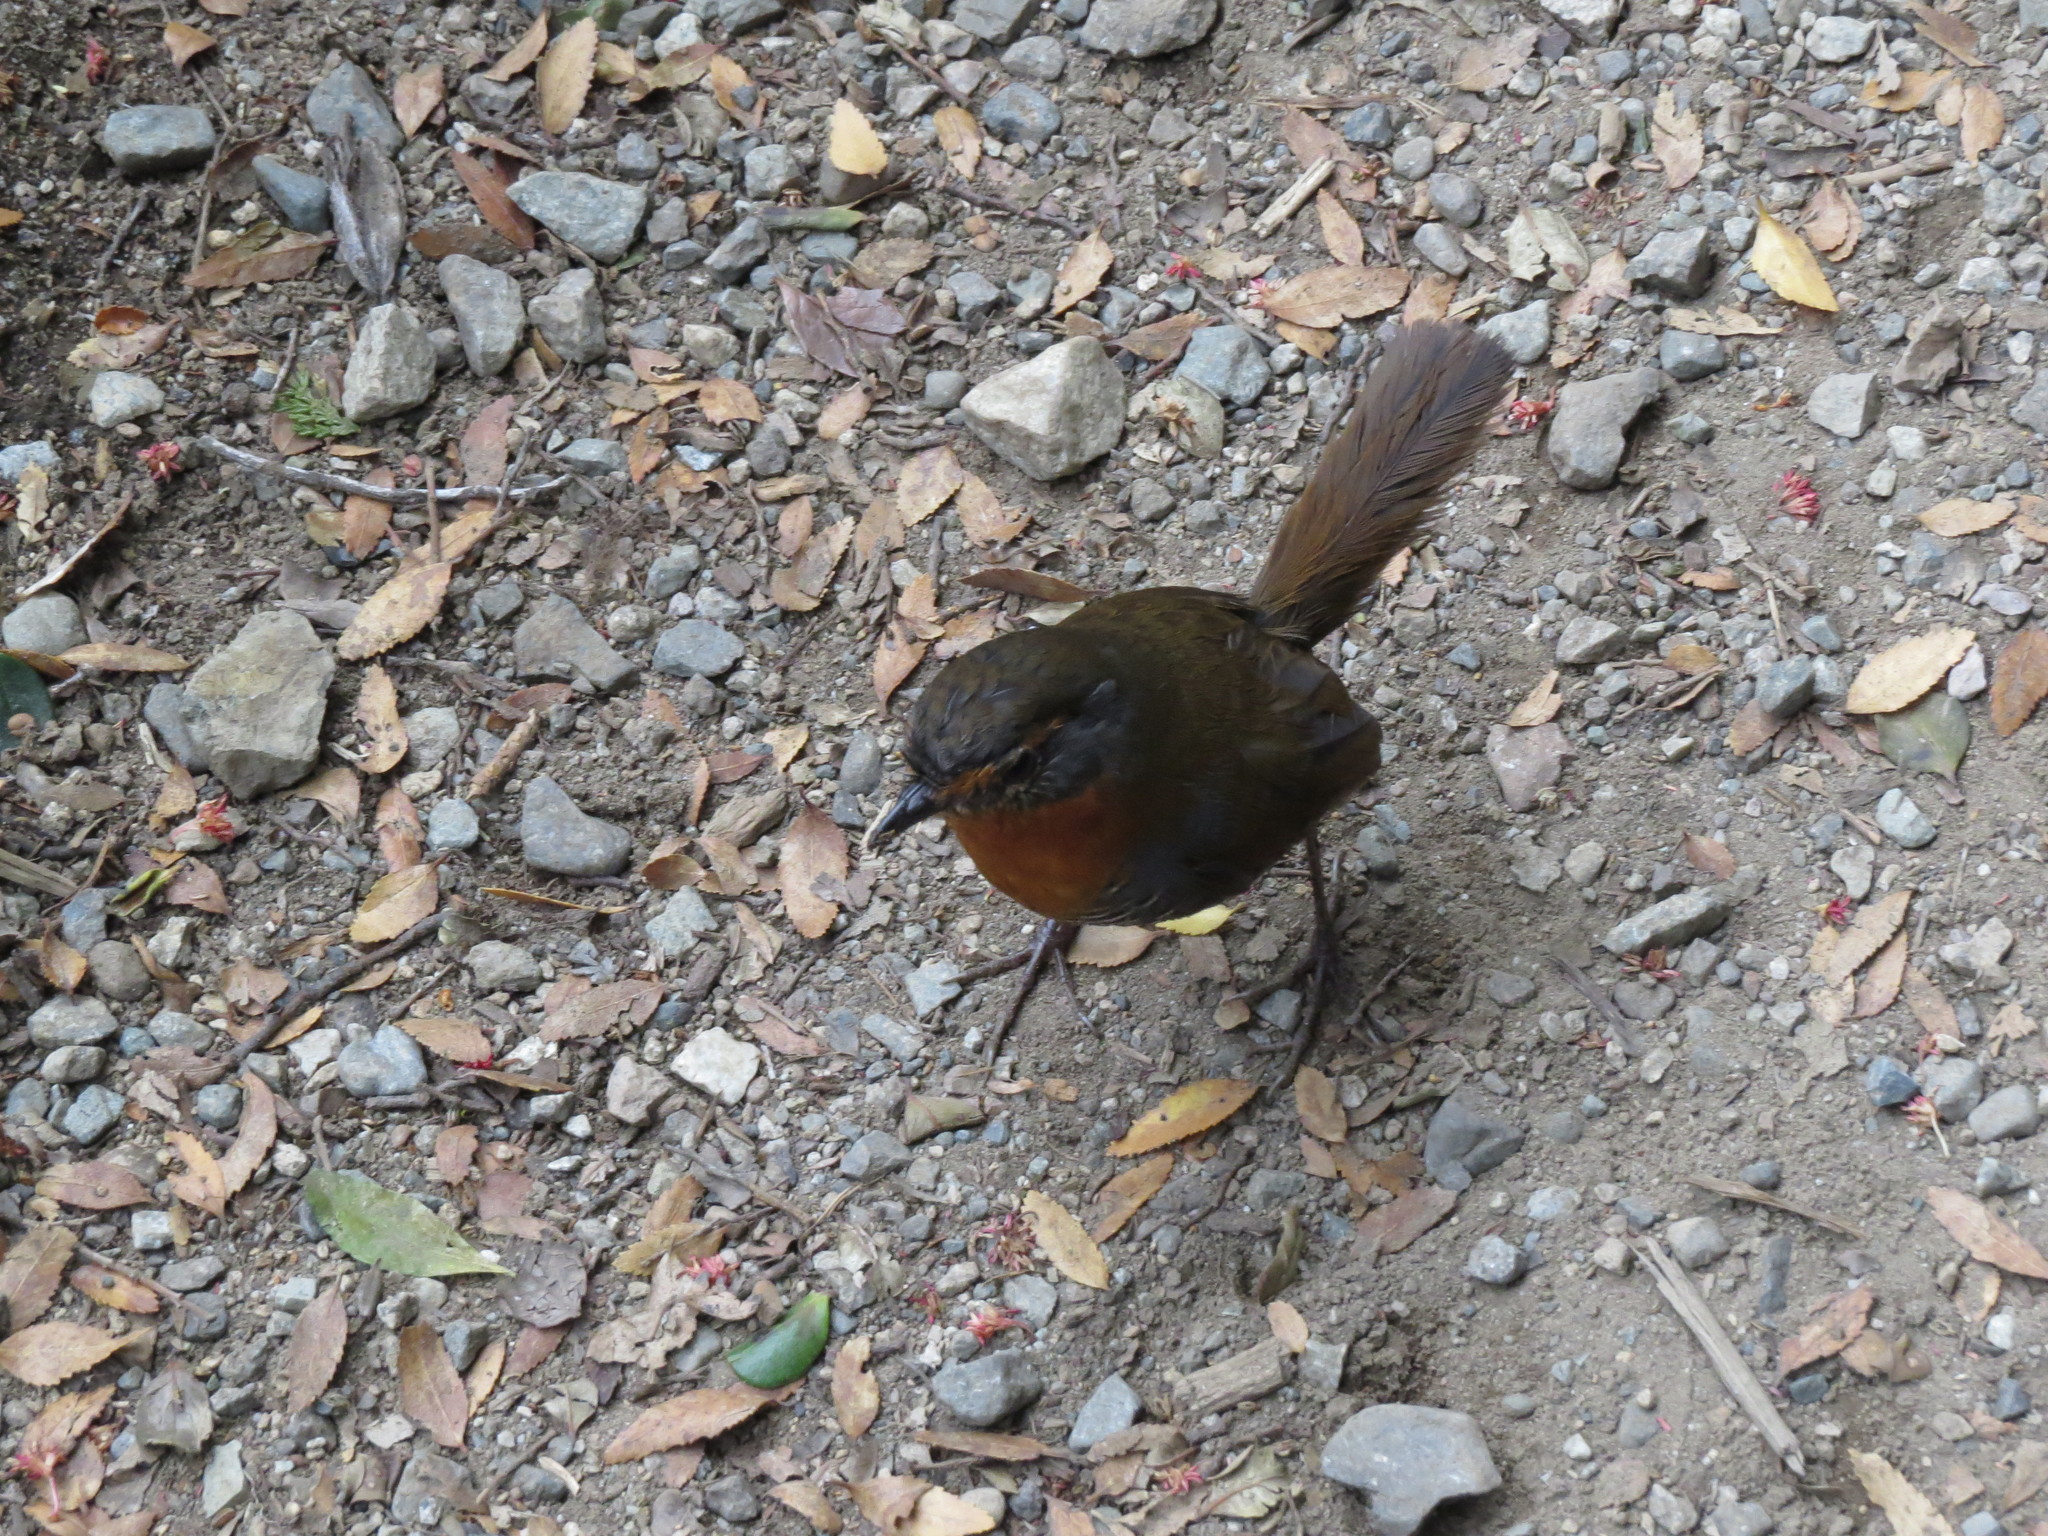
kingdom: Animalia
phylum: Chordata
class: Aves
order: Passeriformes
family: Rhinocryptidae
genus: Scelorchilus
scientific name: Scelorchilus rubecula
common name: Chucao tapaculo
